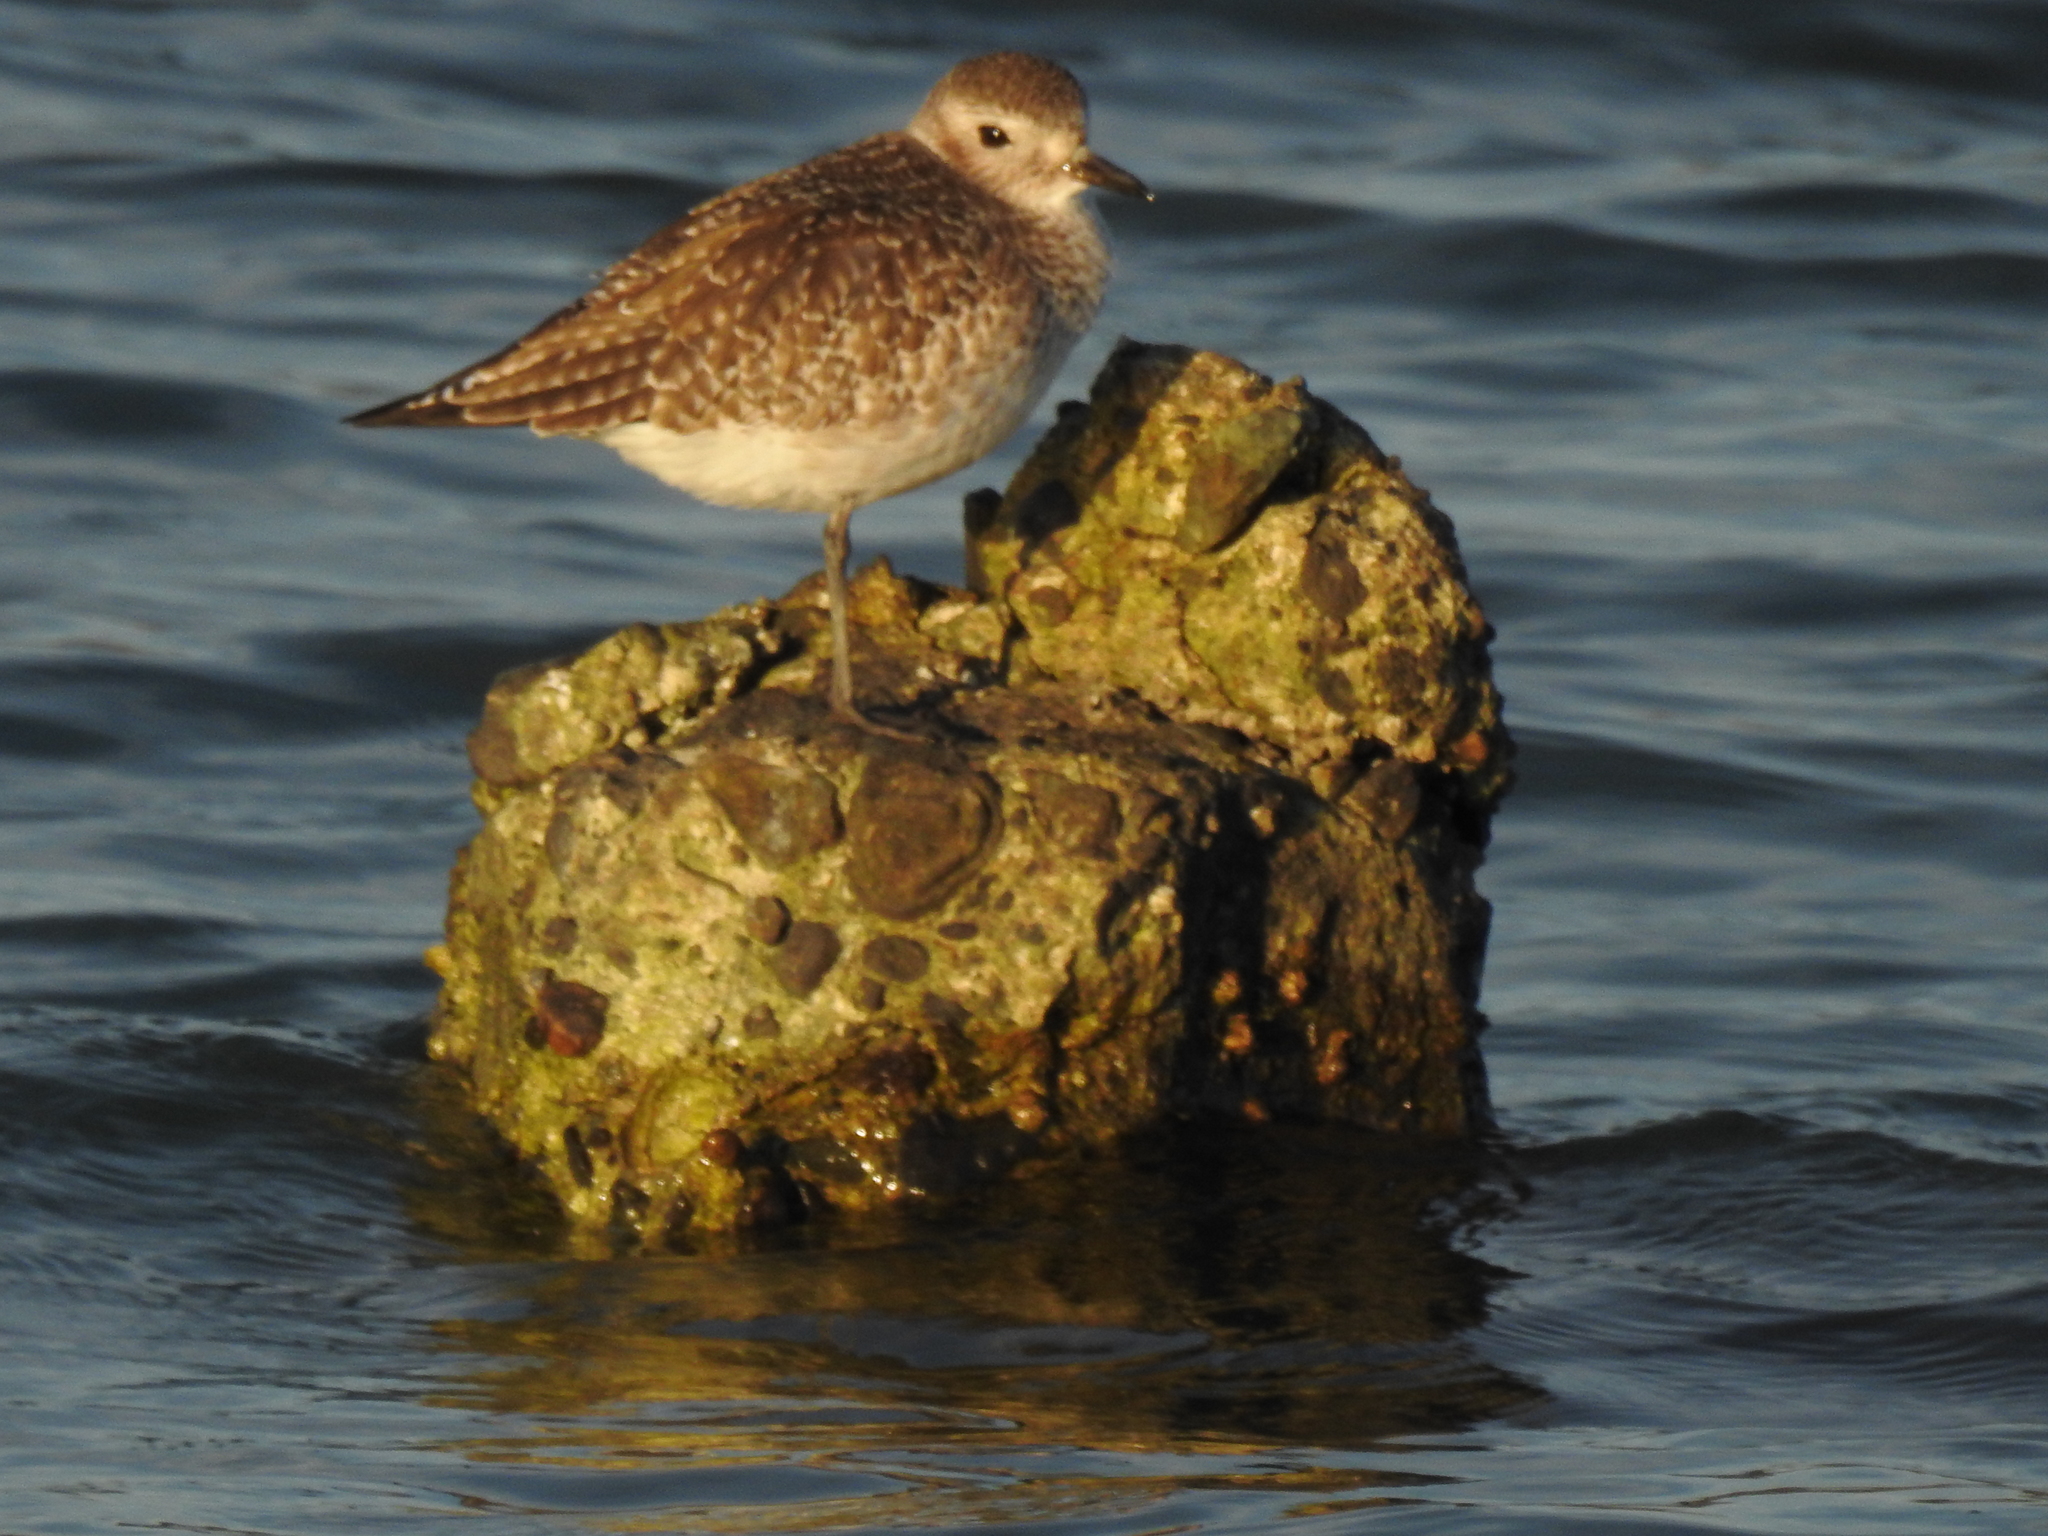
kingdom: Animalia
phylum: Chordata
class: Aves
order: Charadriiformes
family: Charadriidae
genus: Pluvialis
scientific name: Pluvialis squatarola
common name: Grey plover
